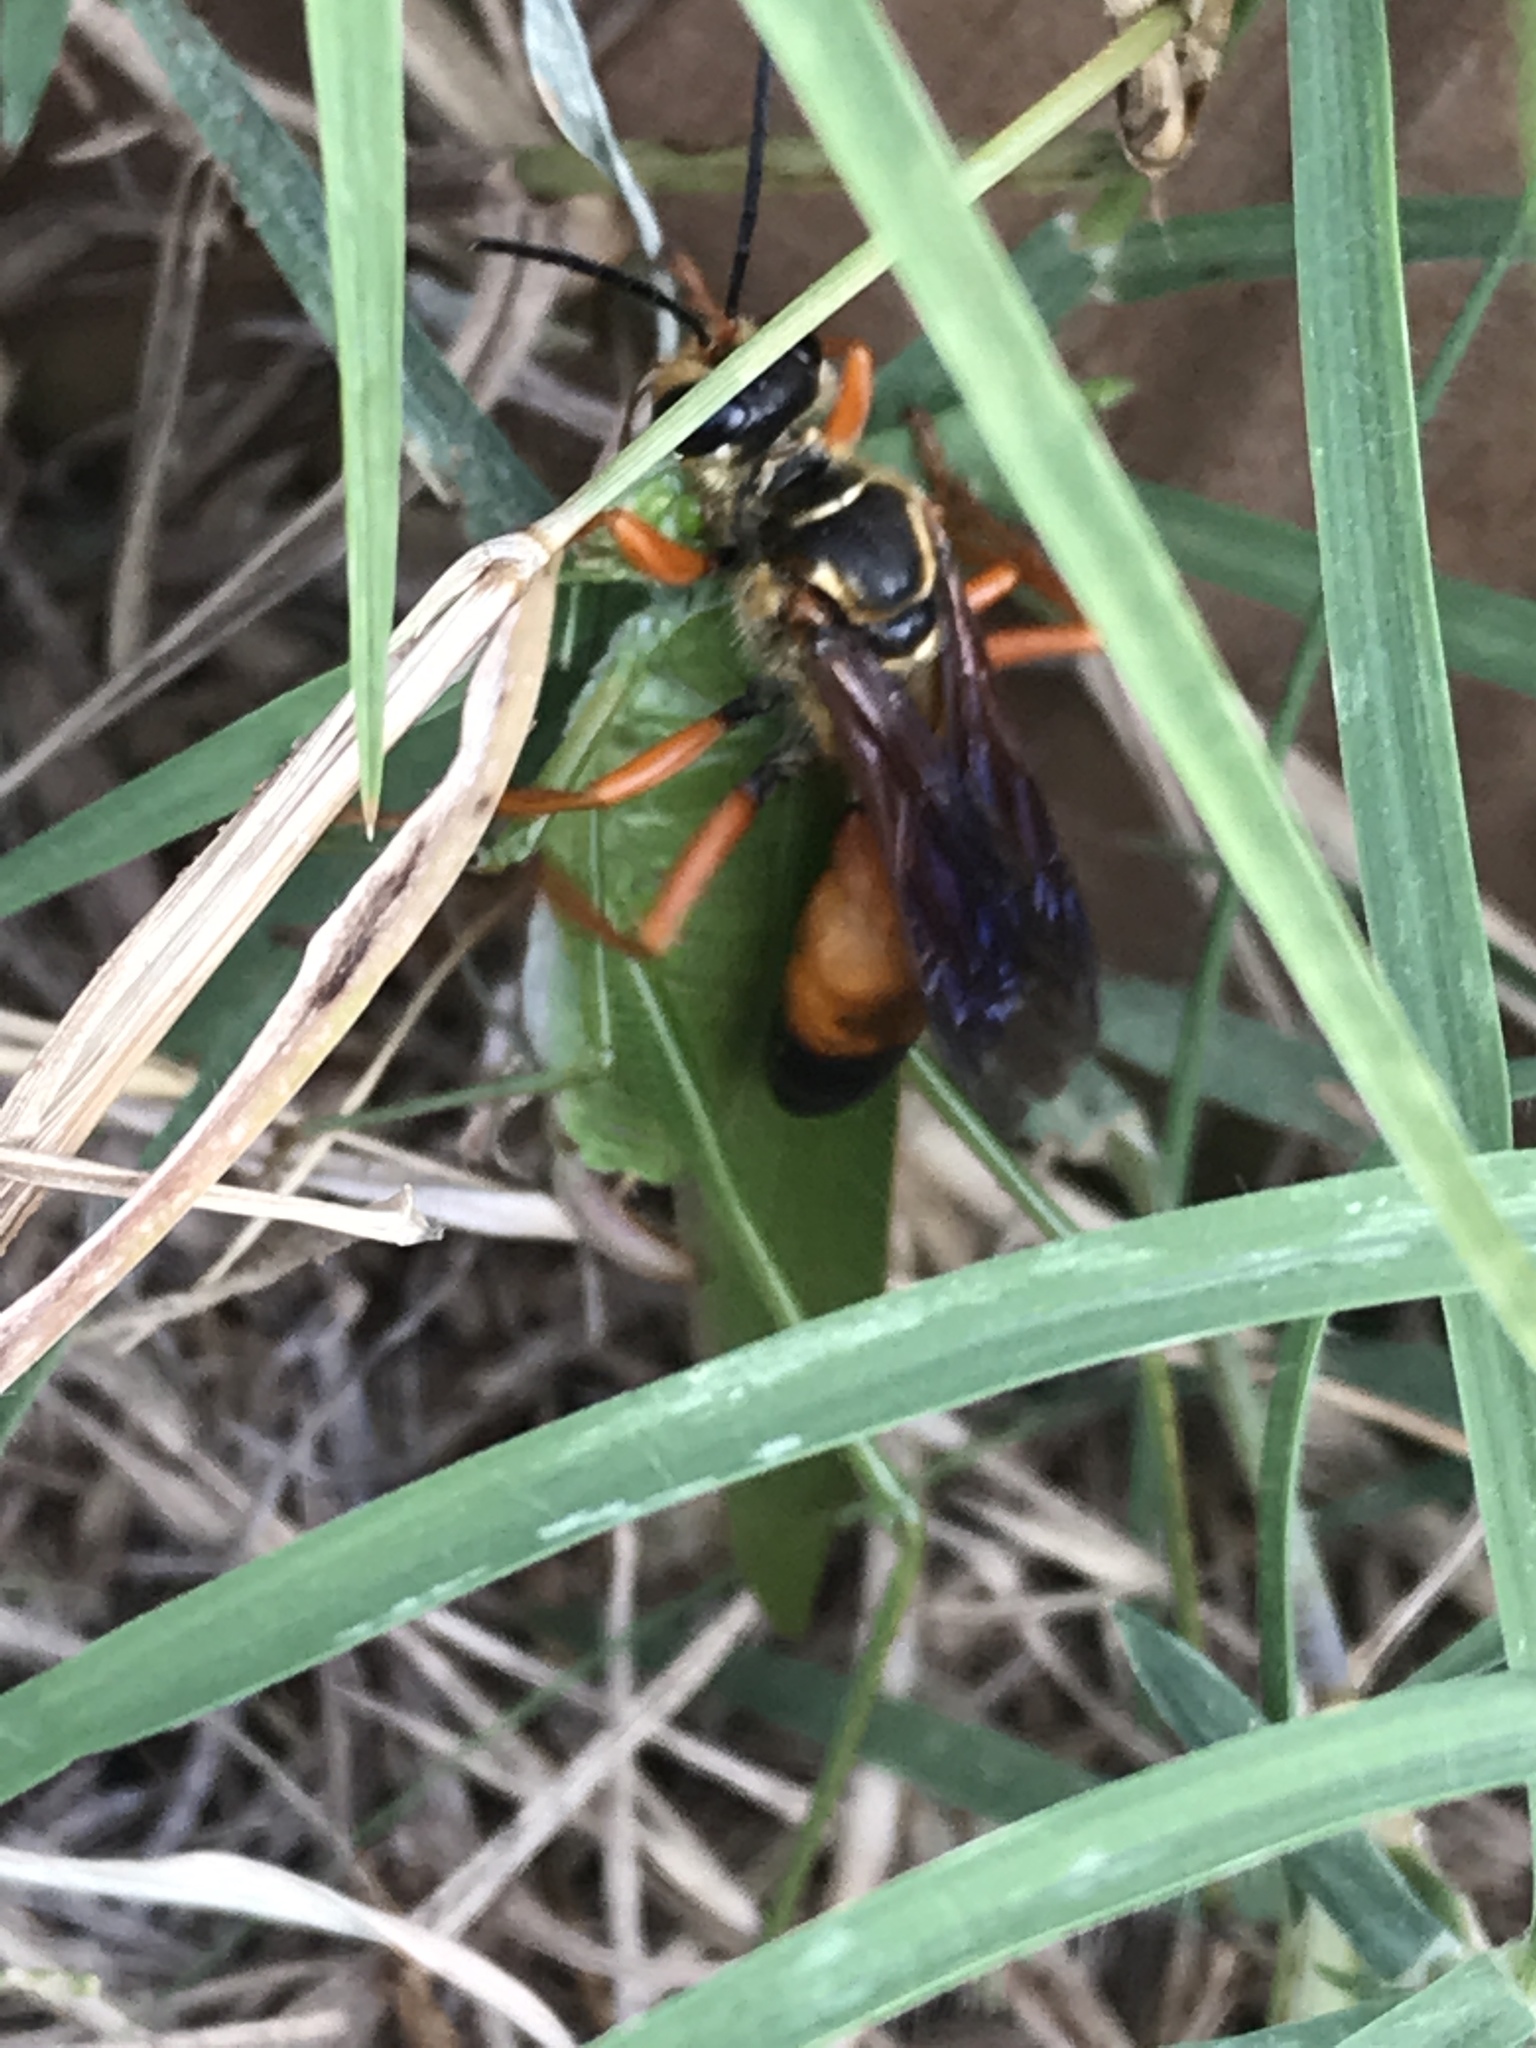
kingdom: Animalia
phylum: Arthropoda
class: Insecta
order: Hymenoptera
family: Sphecidae
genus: Sphex
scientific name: Sphex ichneumoneus
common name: Great golden digger wasp
